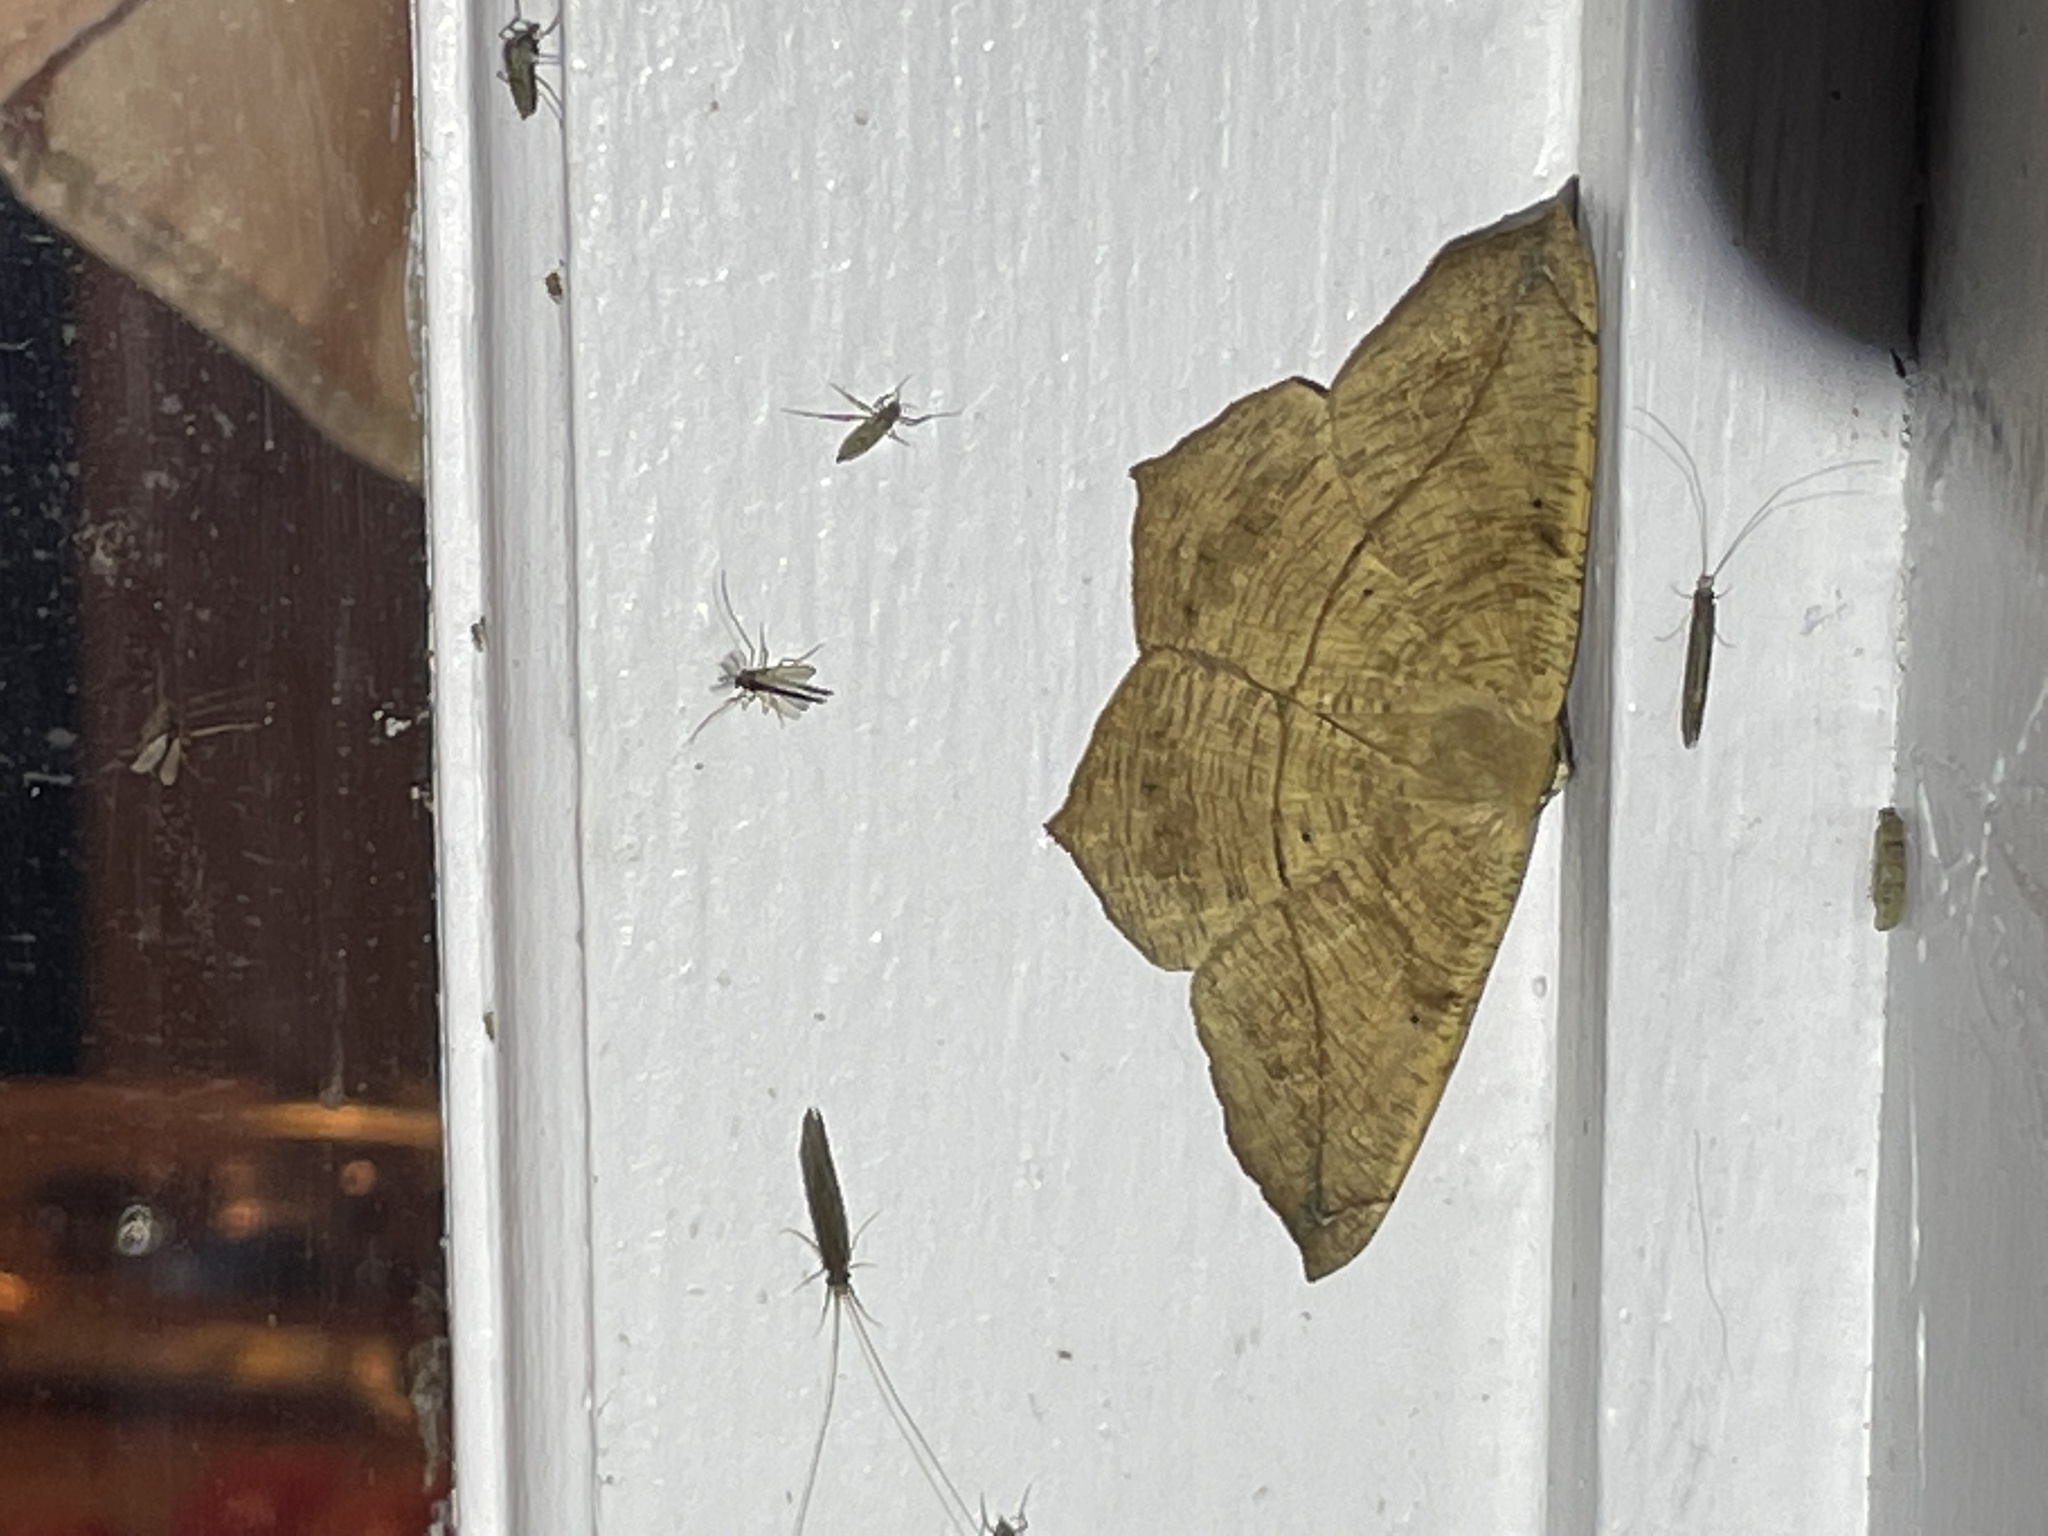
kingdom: Animalia
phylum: Arthropoda
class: Insecta
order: Lepidoptera
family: Geometridae
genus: Prochoerodes
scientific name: Prochoerodes lineola
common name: Large maple spanworm
